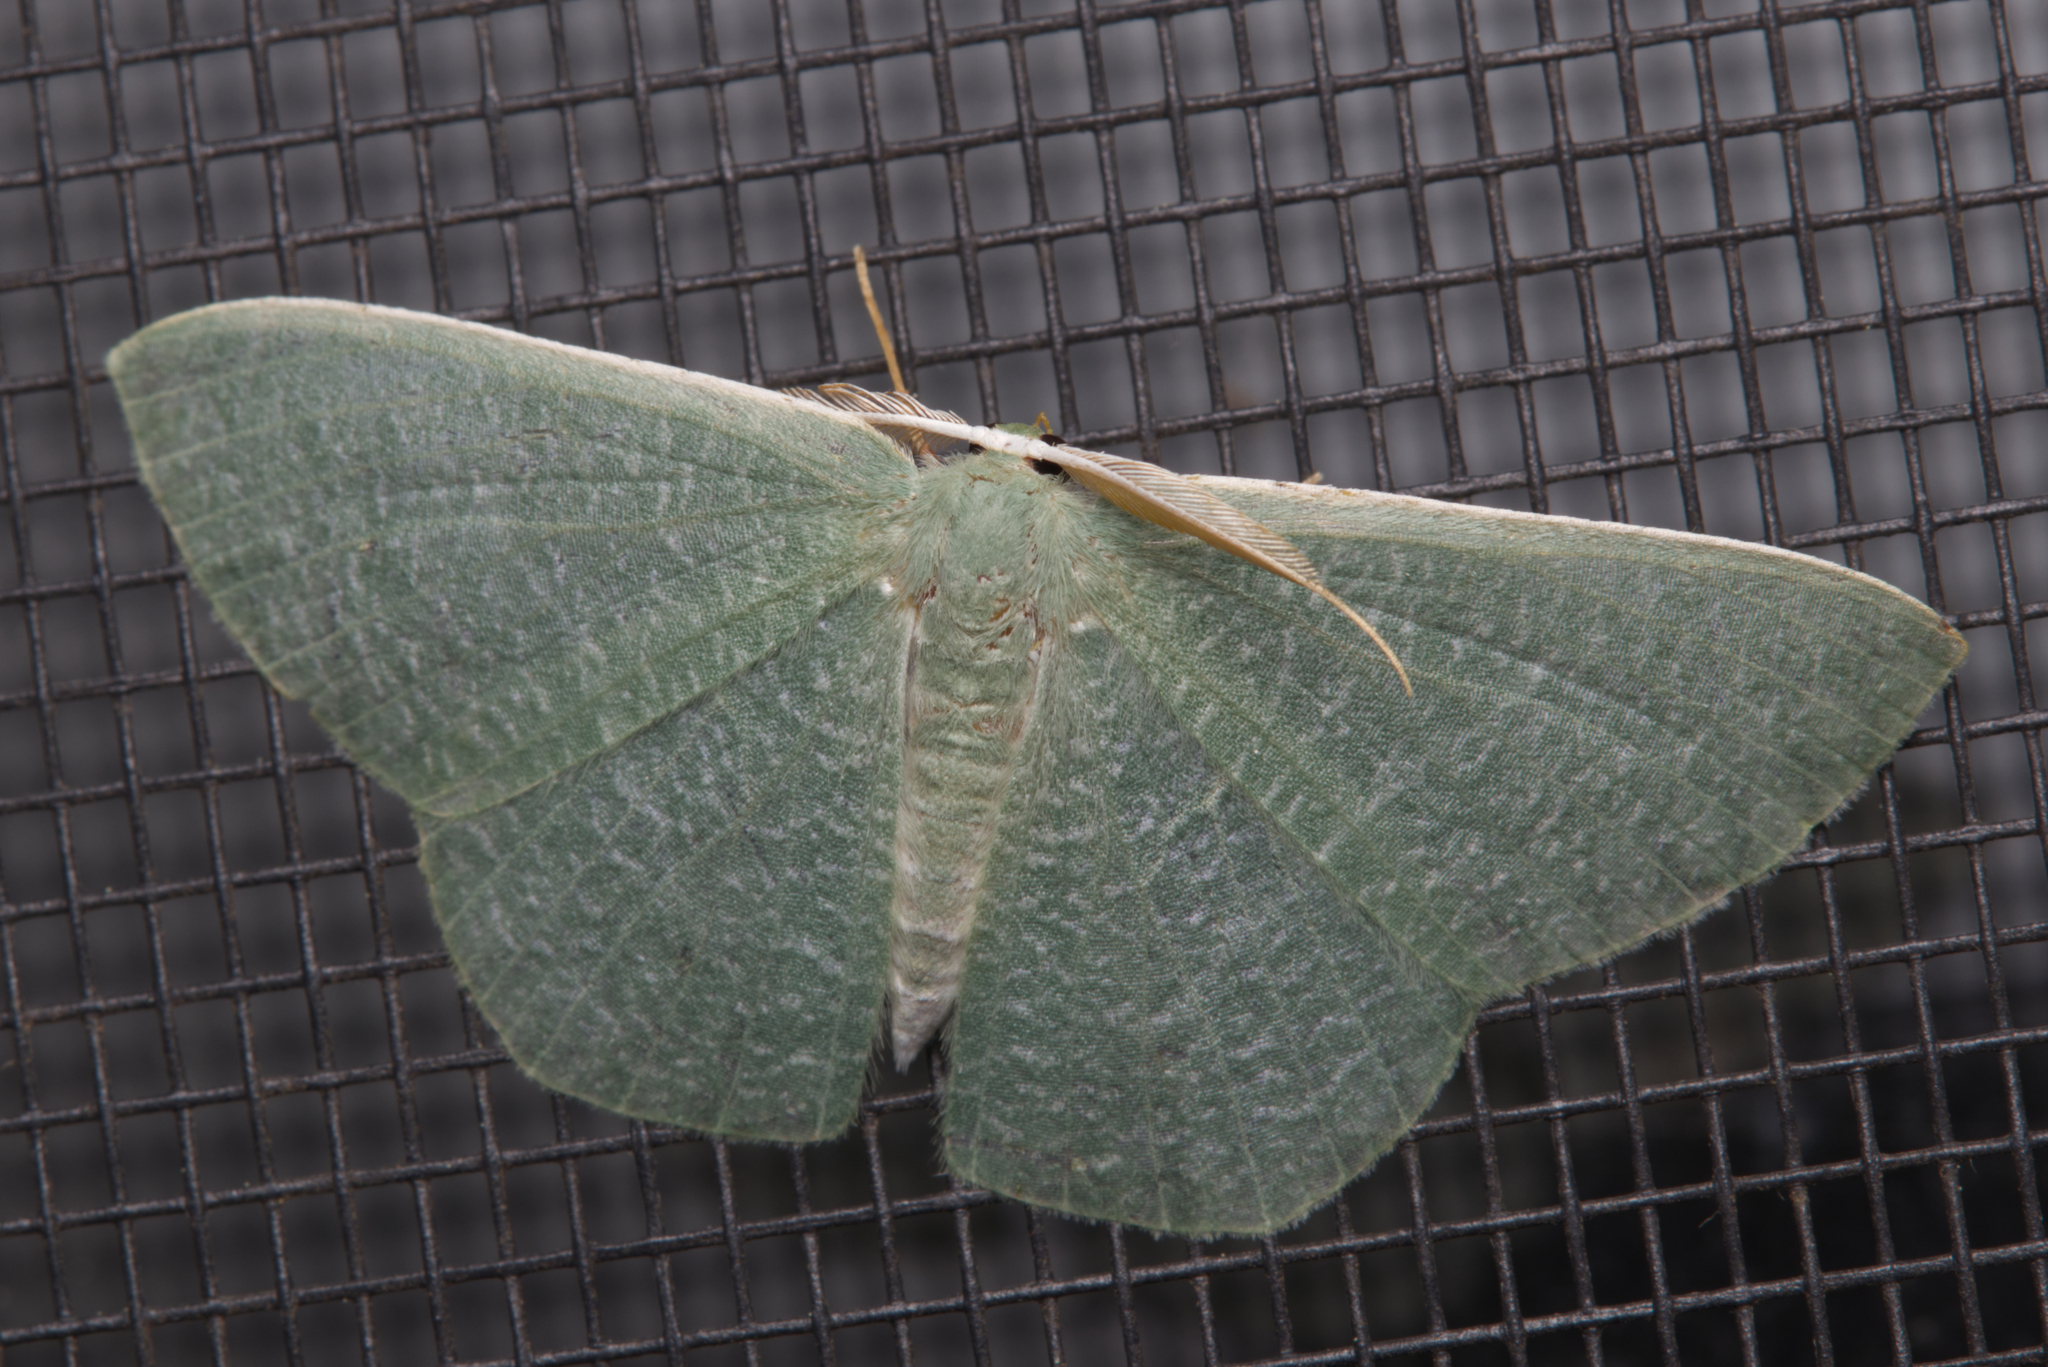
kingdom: Animalia
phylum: Arthropoda
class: Insecta
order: Lepidoptera
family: Geometridae
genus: Prasinocyma
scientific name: Prasinocyma albicosta
